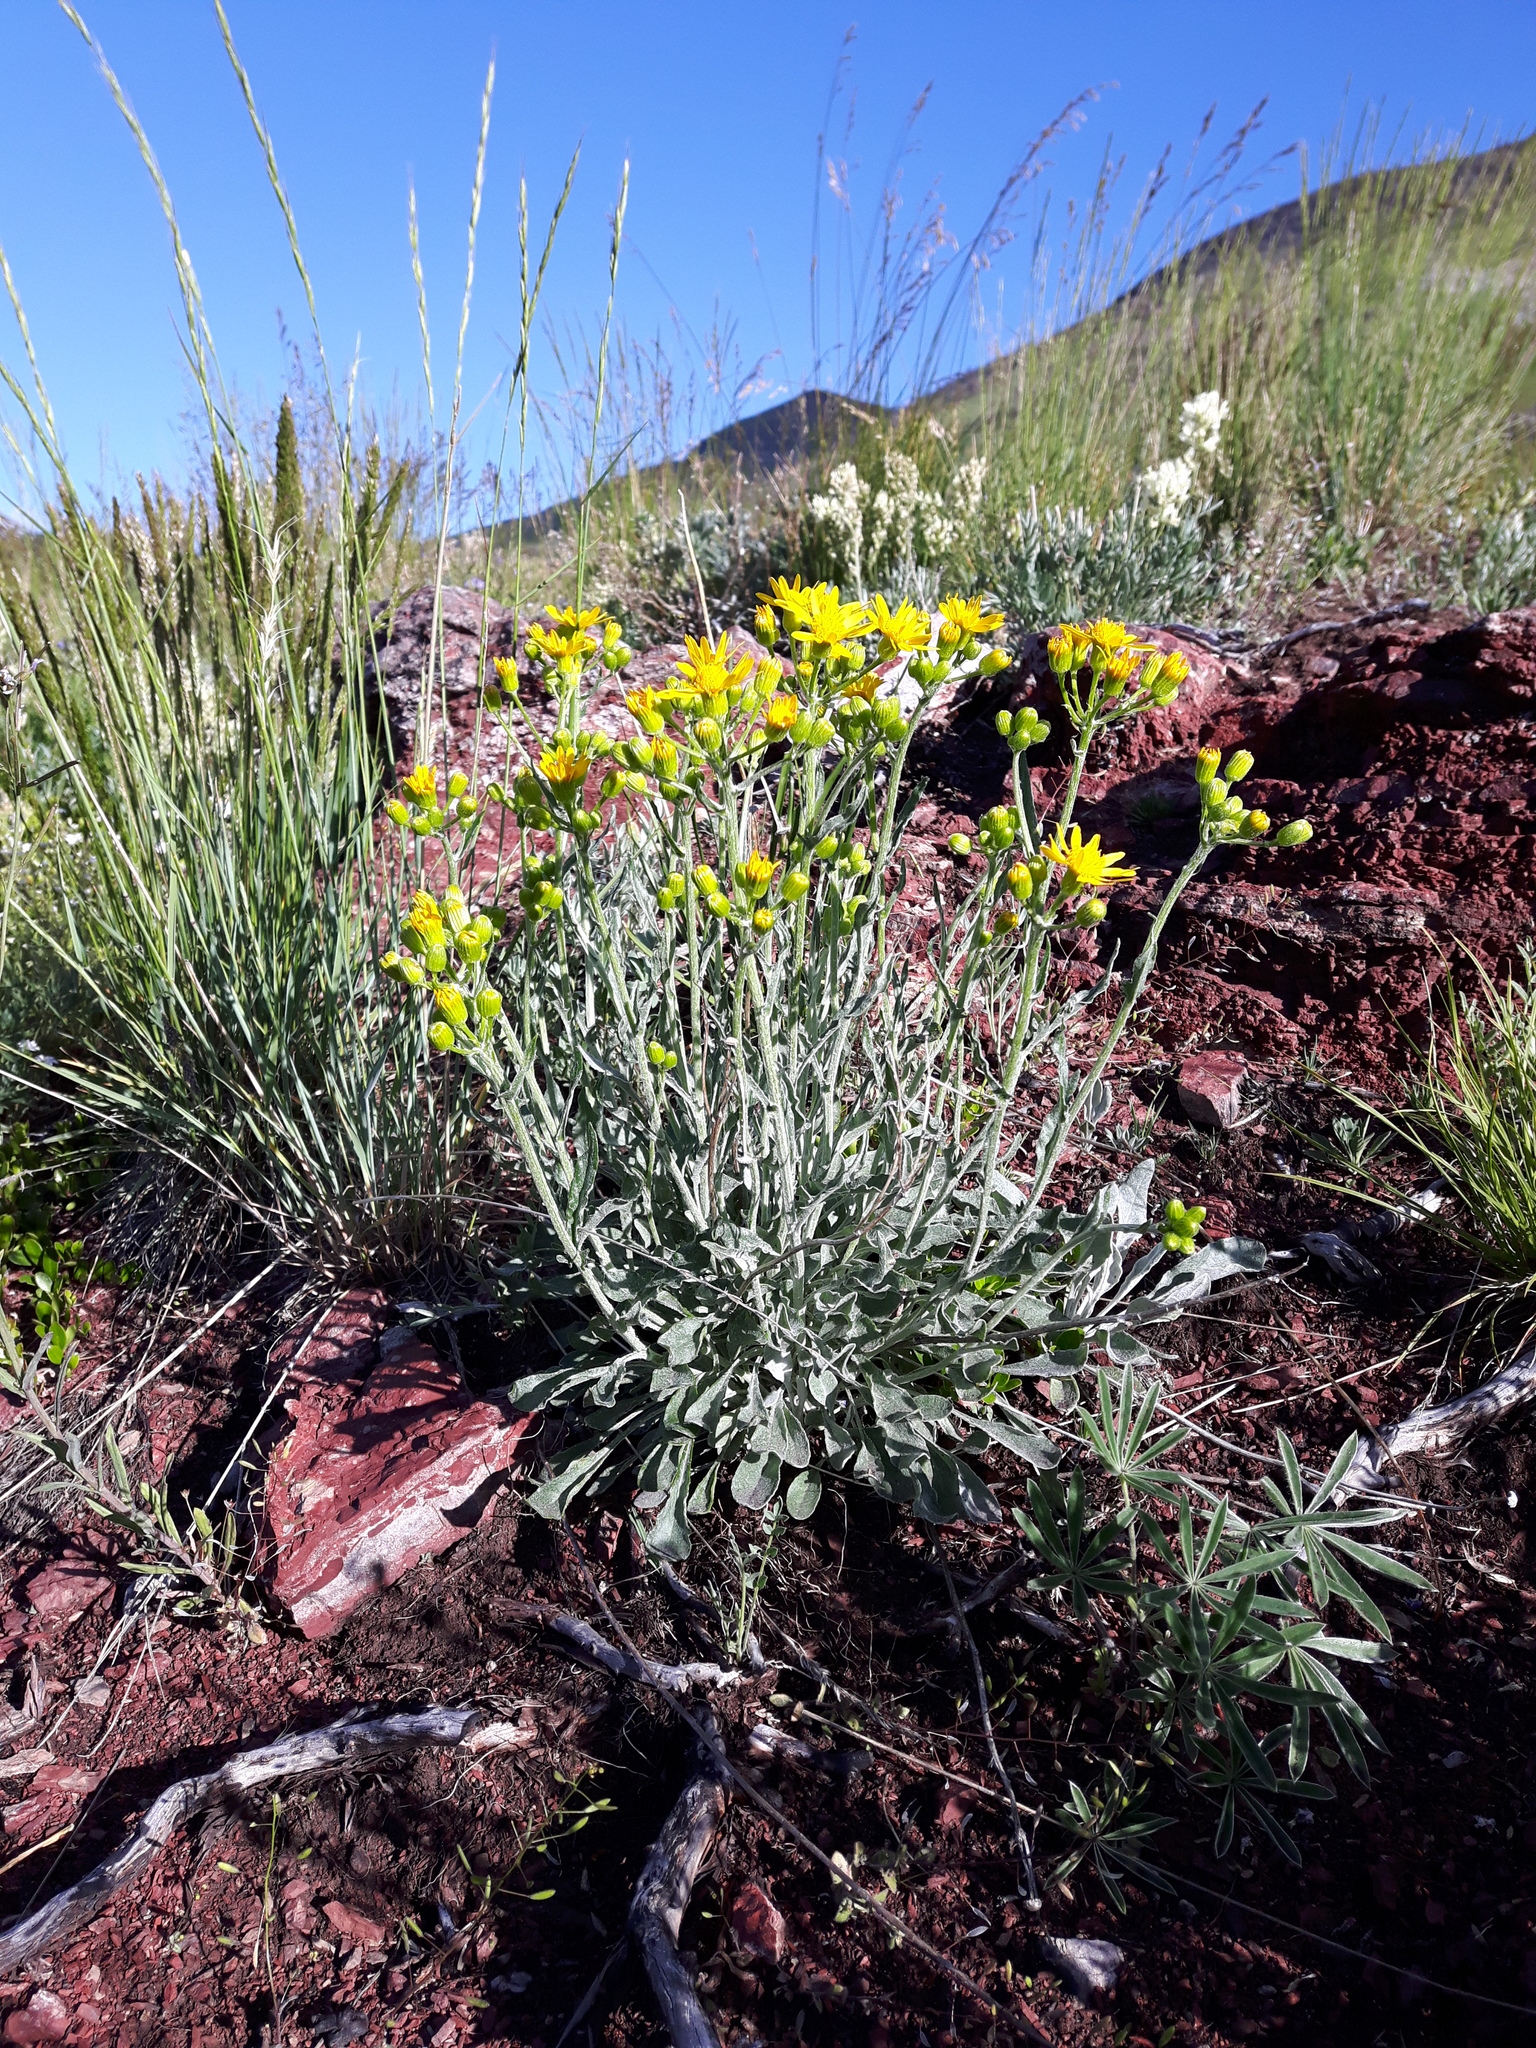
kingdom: Plantae
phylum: Tracheophyta
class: Magnoliopsida
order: Asterales
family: Asteraceae
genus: Packera
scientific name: Packera cana
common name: Woolly groundsel
